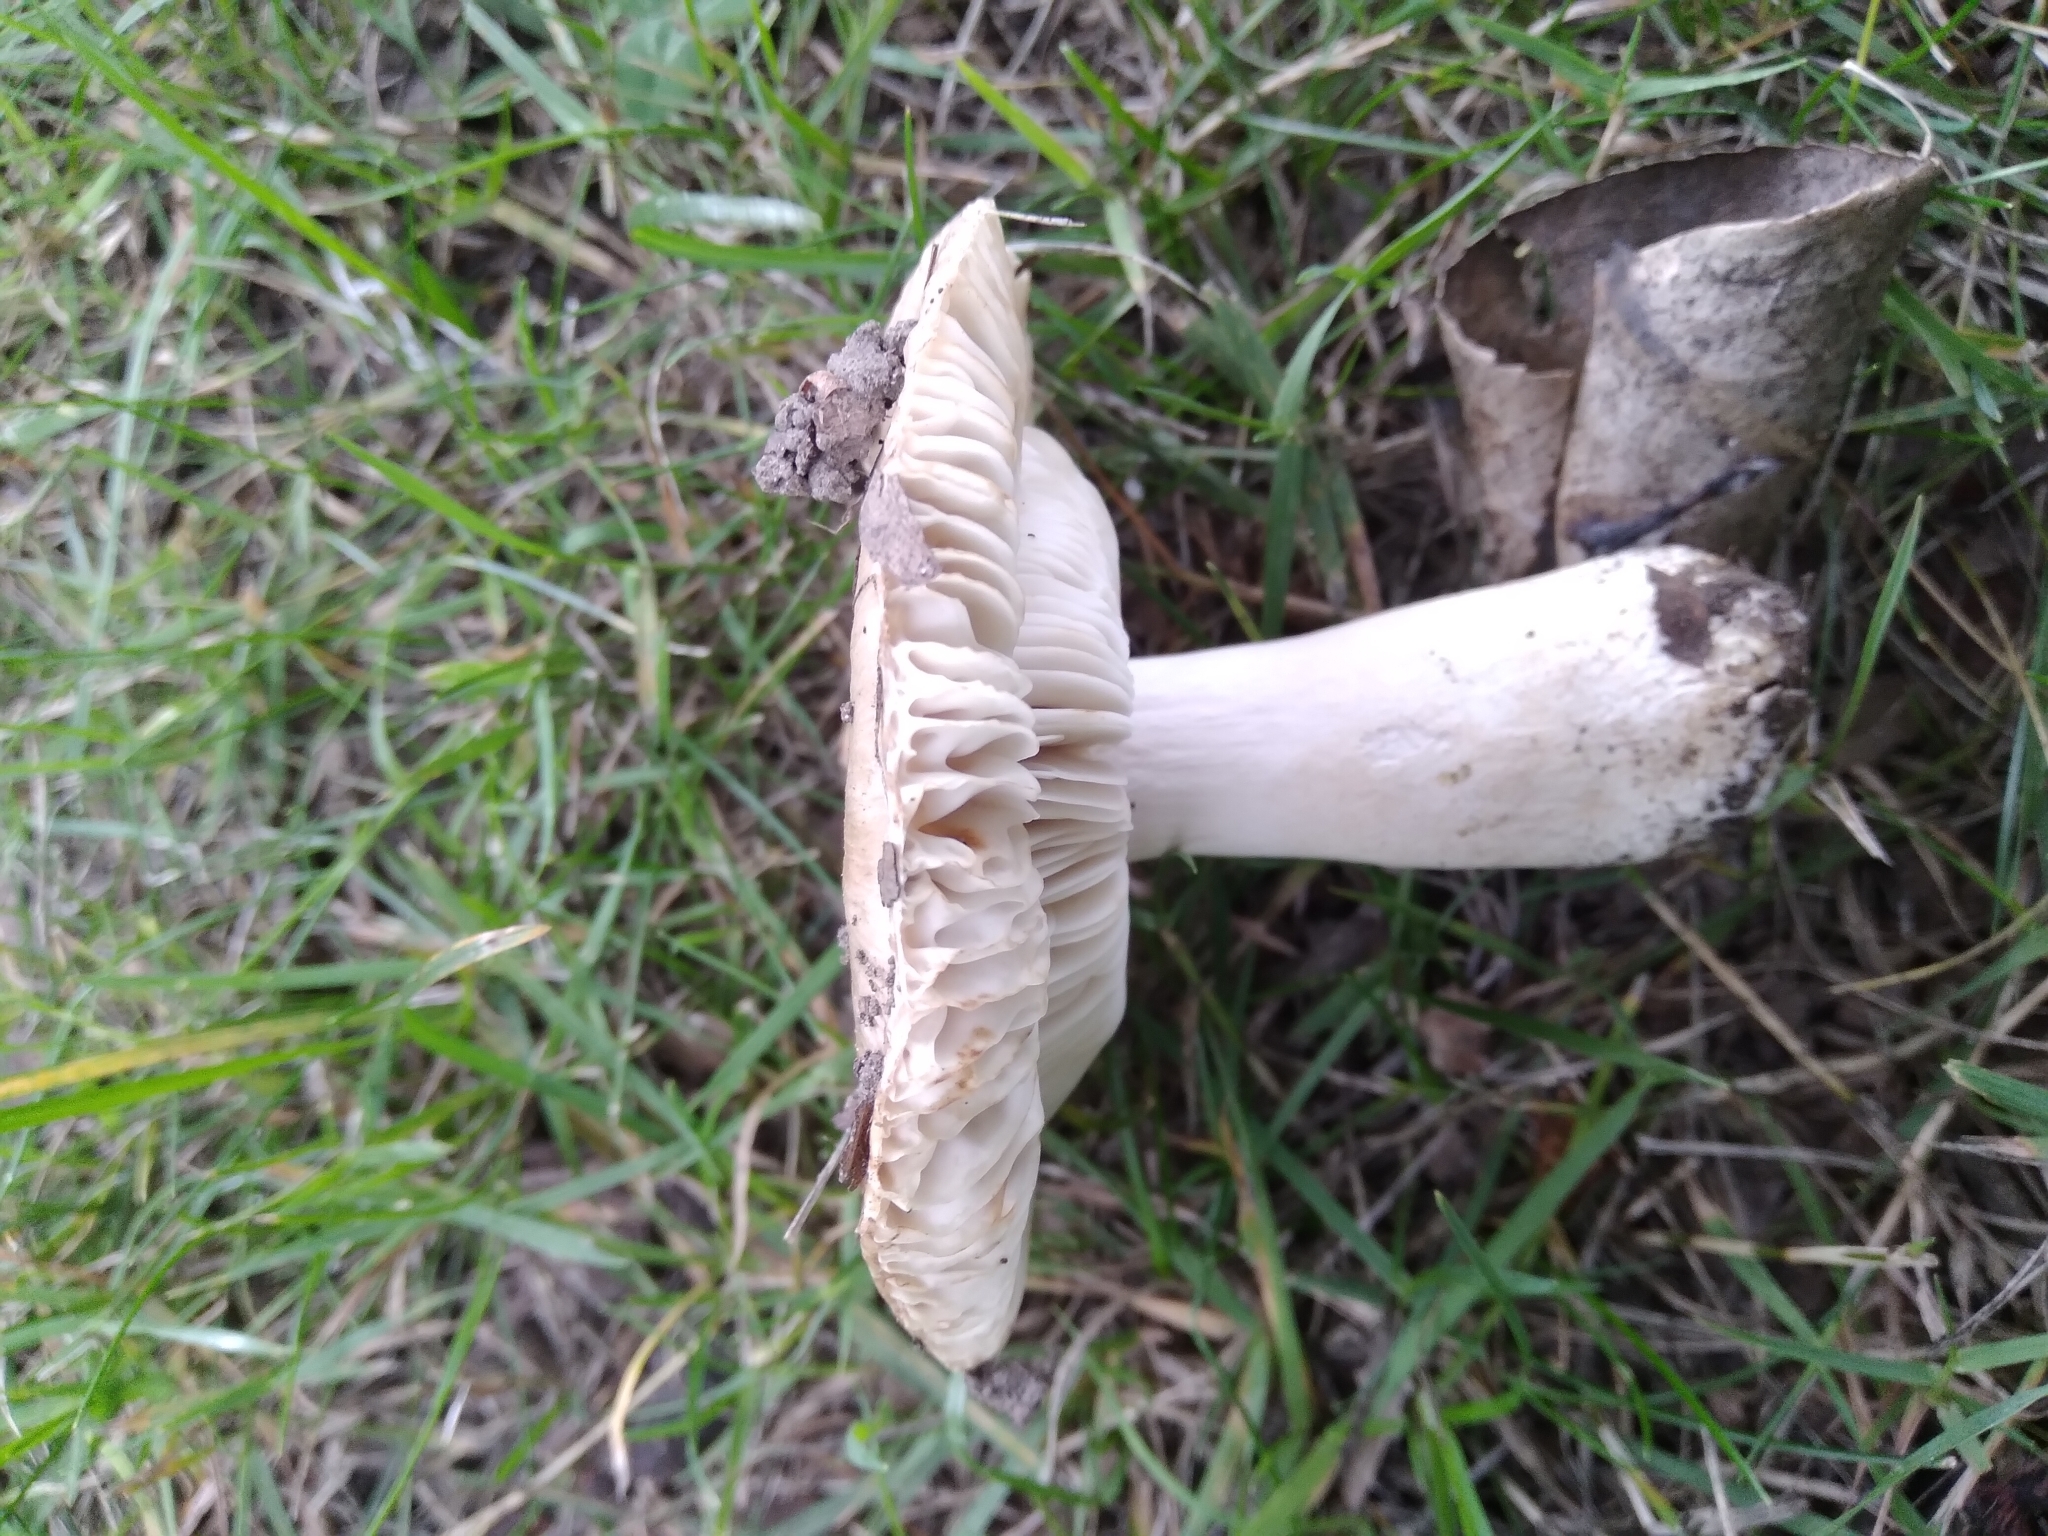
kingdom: Fungi
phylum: Basidiomycota
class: Agaricomycetes
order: Russulales
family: Russulaceae
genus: Russula
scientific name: Russula amoenolens
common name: Camembert brittlegill
